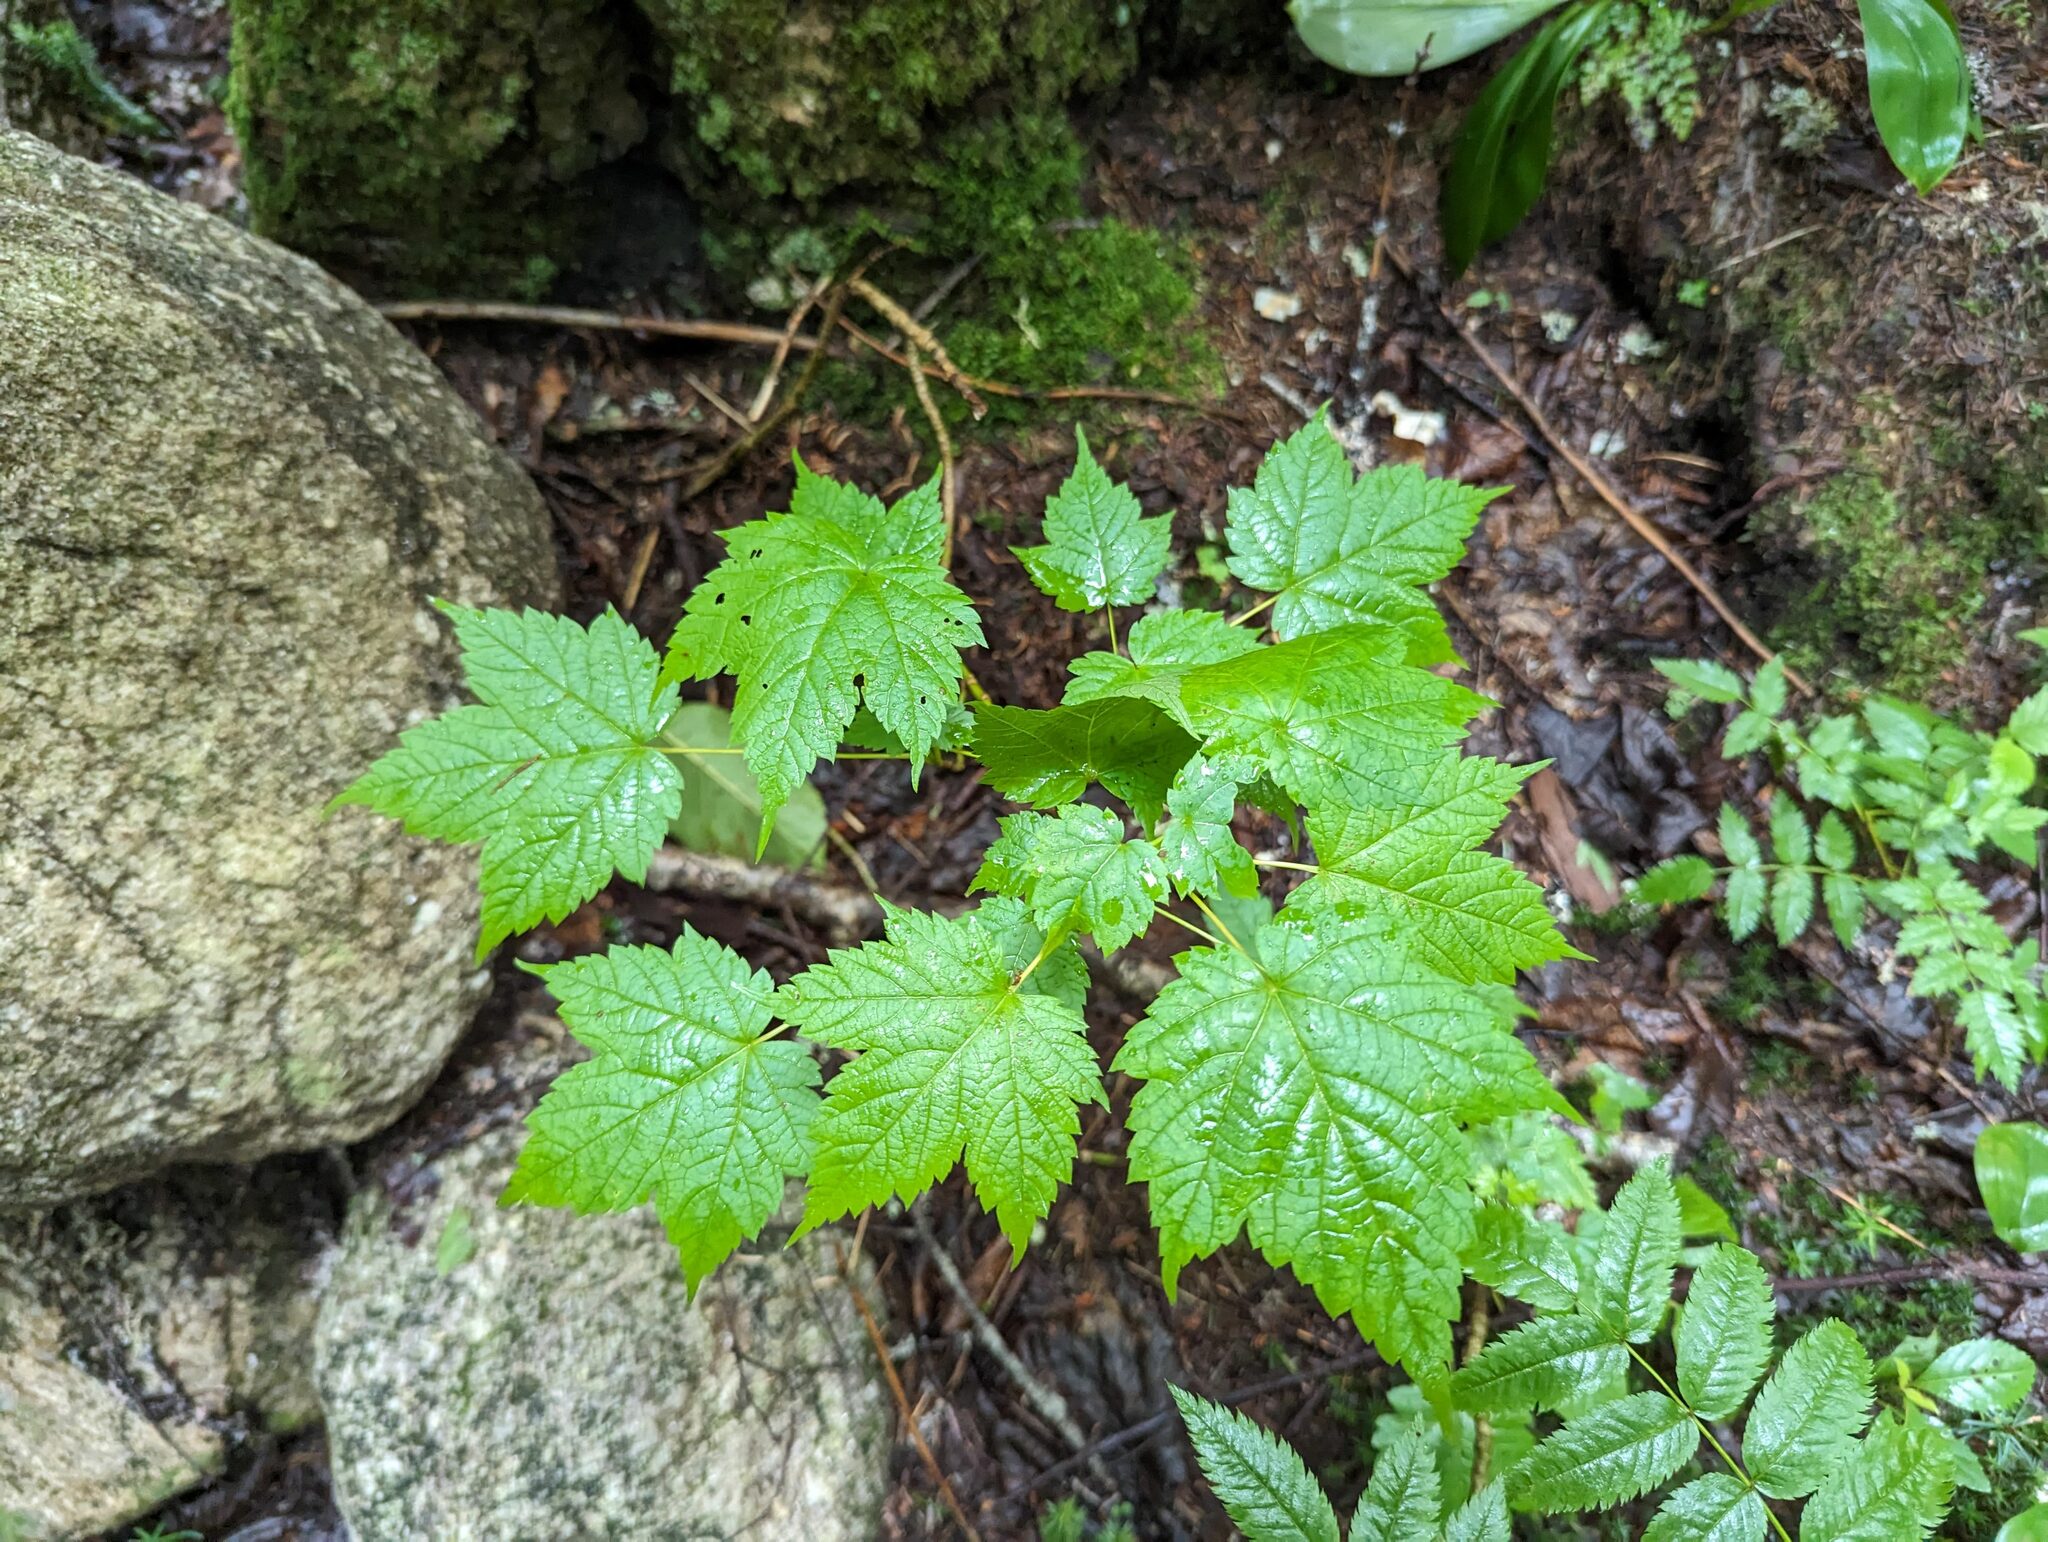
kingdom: Plantae
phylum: Tracheophyta
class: Magnoliopsida
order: Sapindales
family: Sapindaceae
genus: Acer
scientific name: Acer spicatum
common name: Mountain maple
